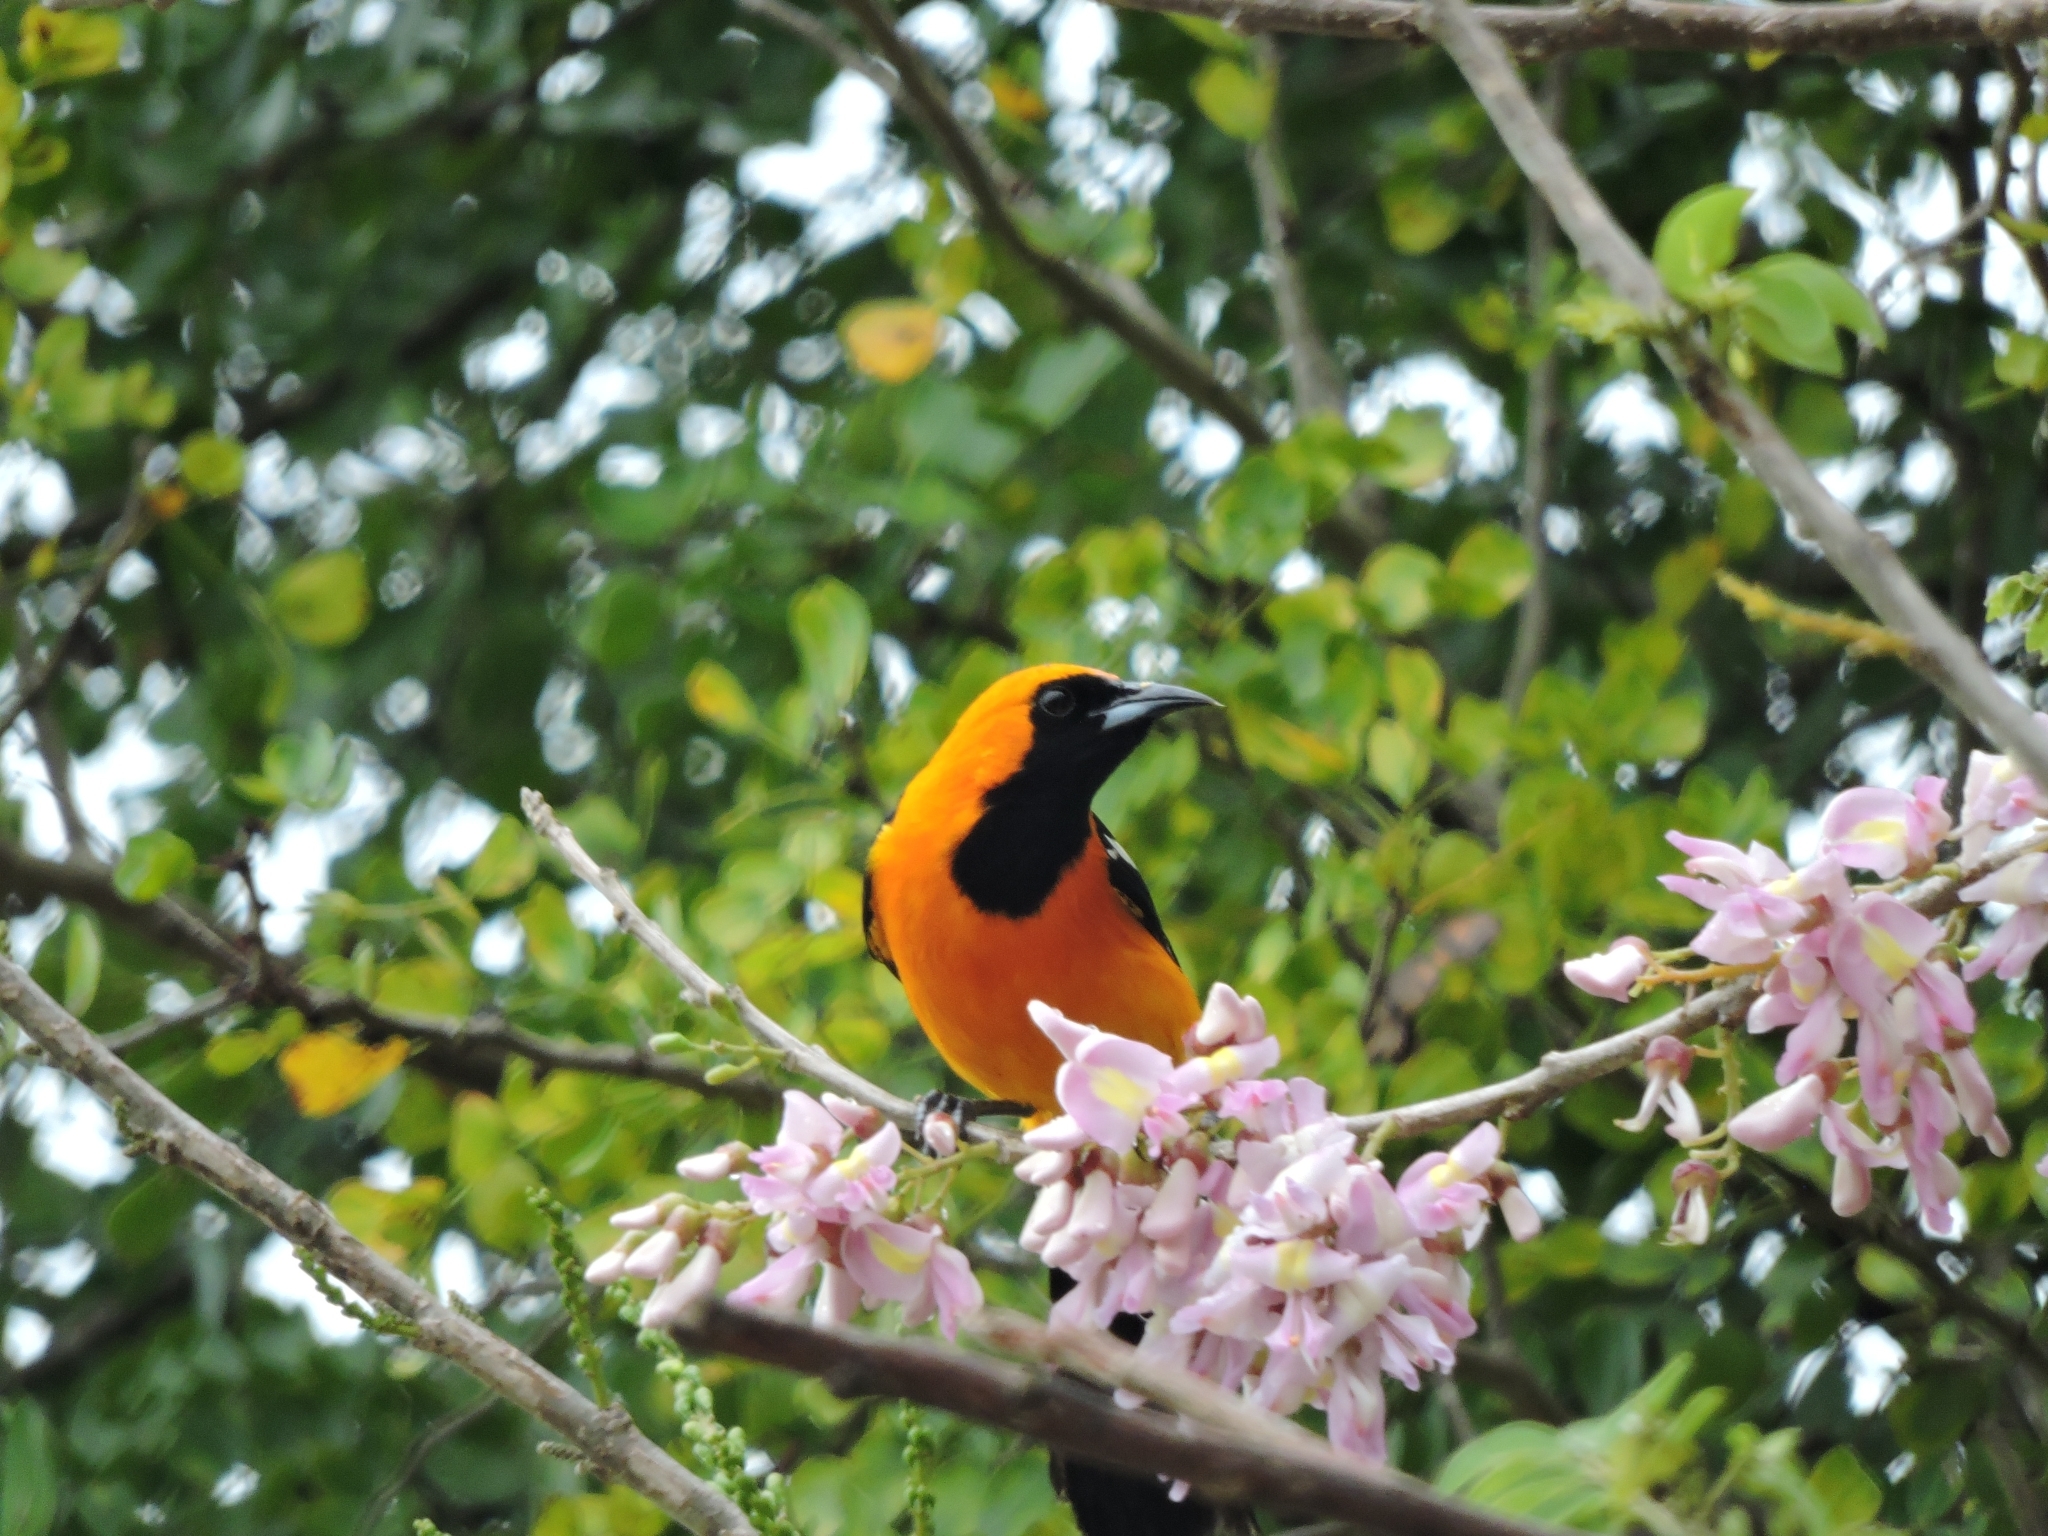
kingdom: Animalia
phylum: Chordata
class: Aves
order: Passeriformes
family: Icteridae
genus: Icterus
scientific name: Icterus cucullatus
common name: Hooded oriole
